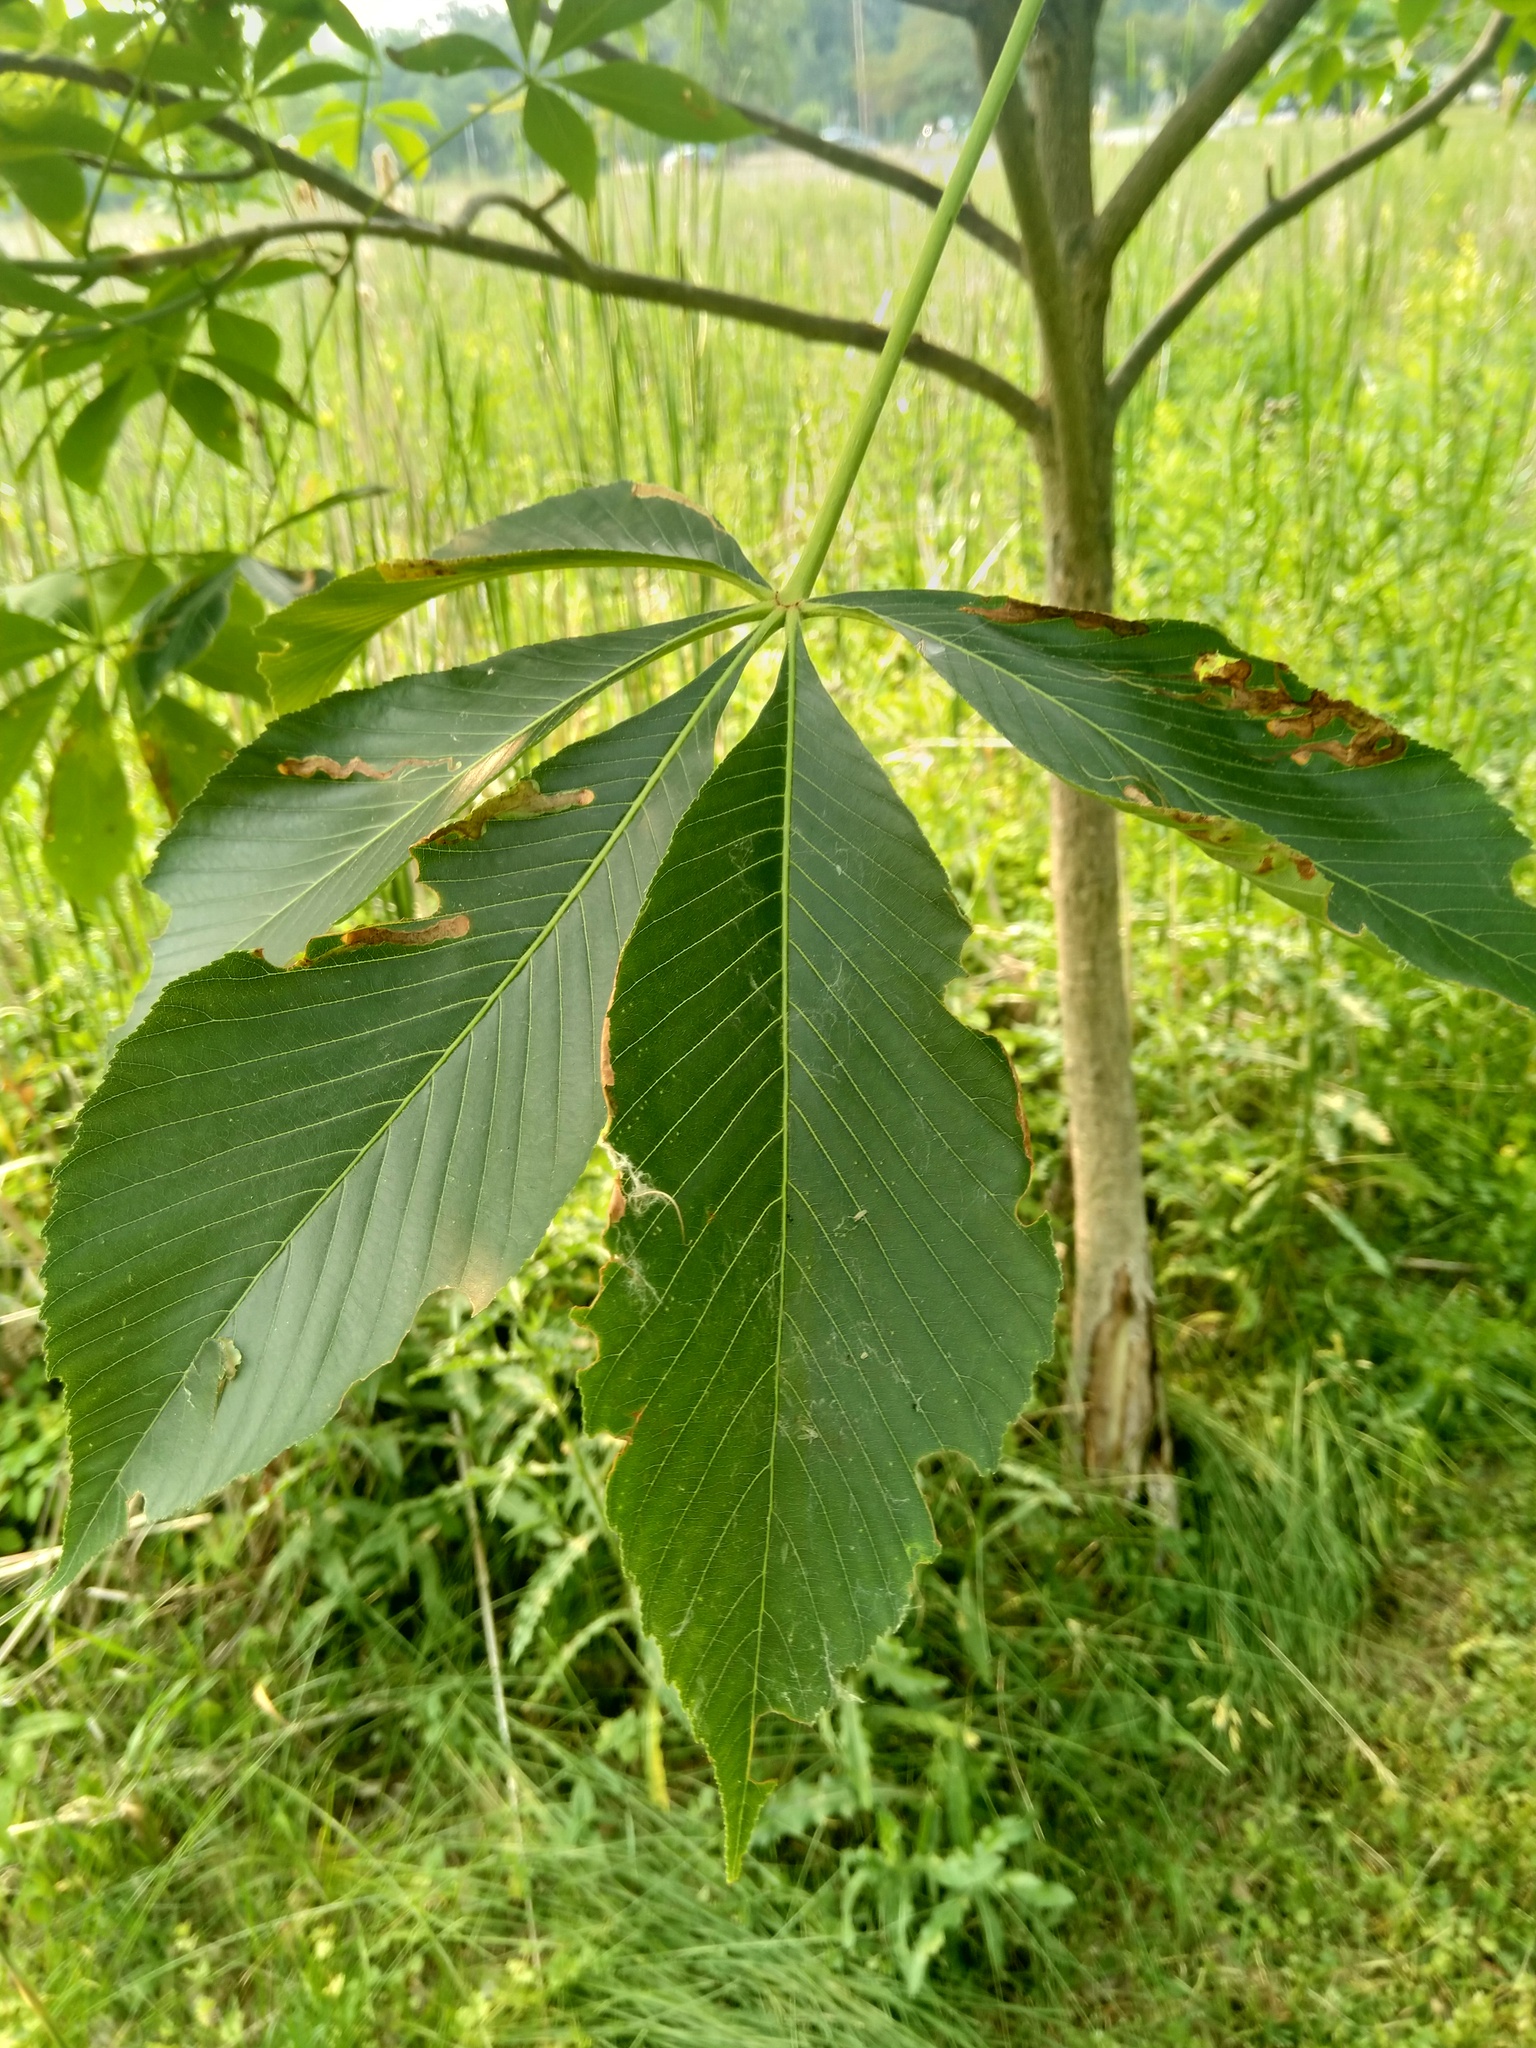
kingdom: Animalia
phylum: Arthropoda
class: Insecta
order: Diptera
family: Agromyzidae
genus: Phytomyza
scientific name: Phytomyza aesculi
